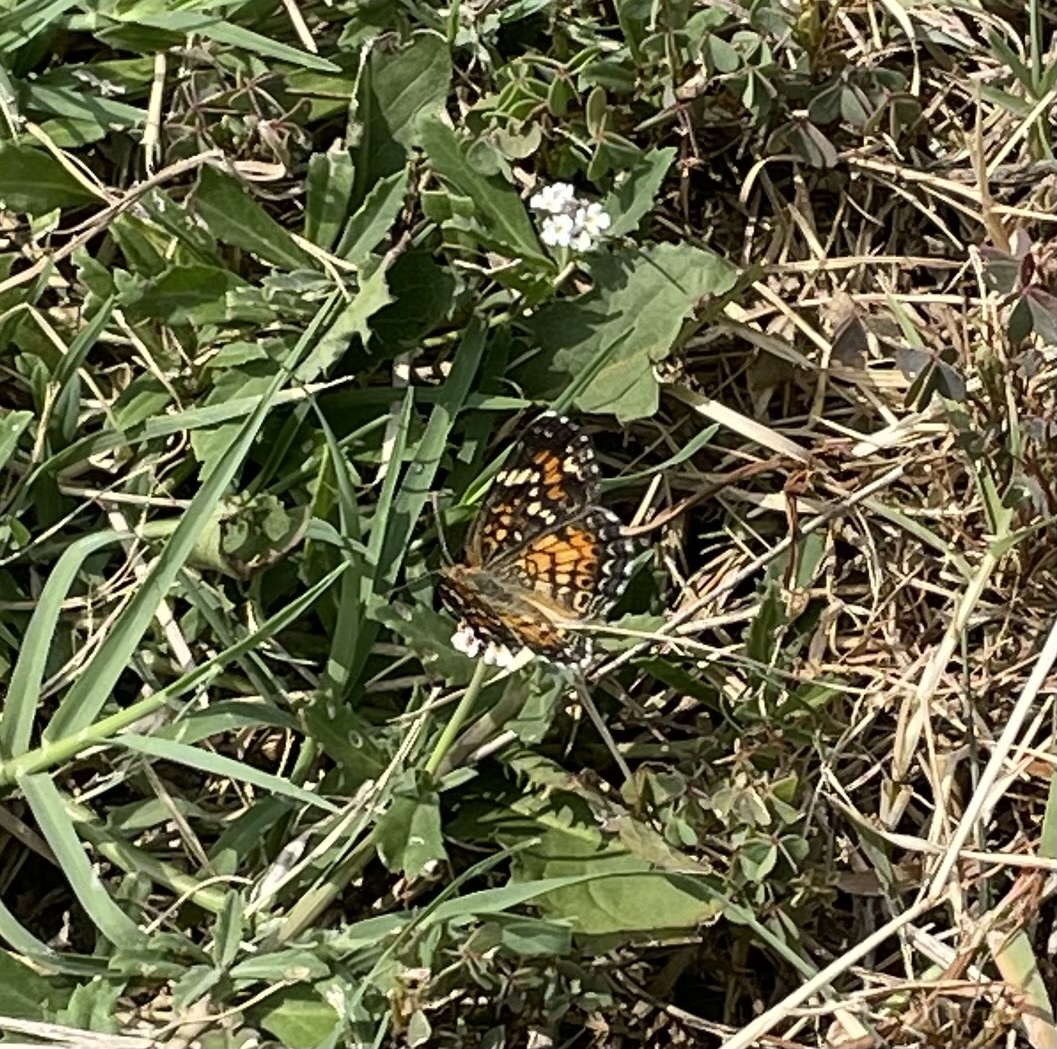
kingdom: Animalia
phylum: Arthropoda
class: Insecta
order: Lepidoptera
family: Nymphalidae
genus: Phyciodes
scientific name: Phyciodes phaon
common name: Phaon crescent
